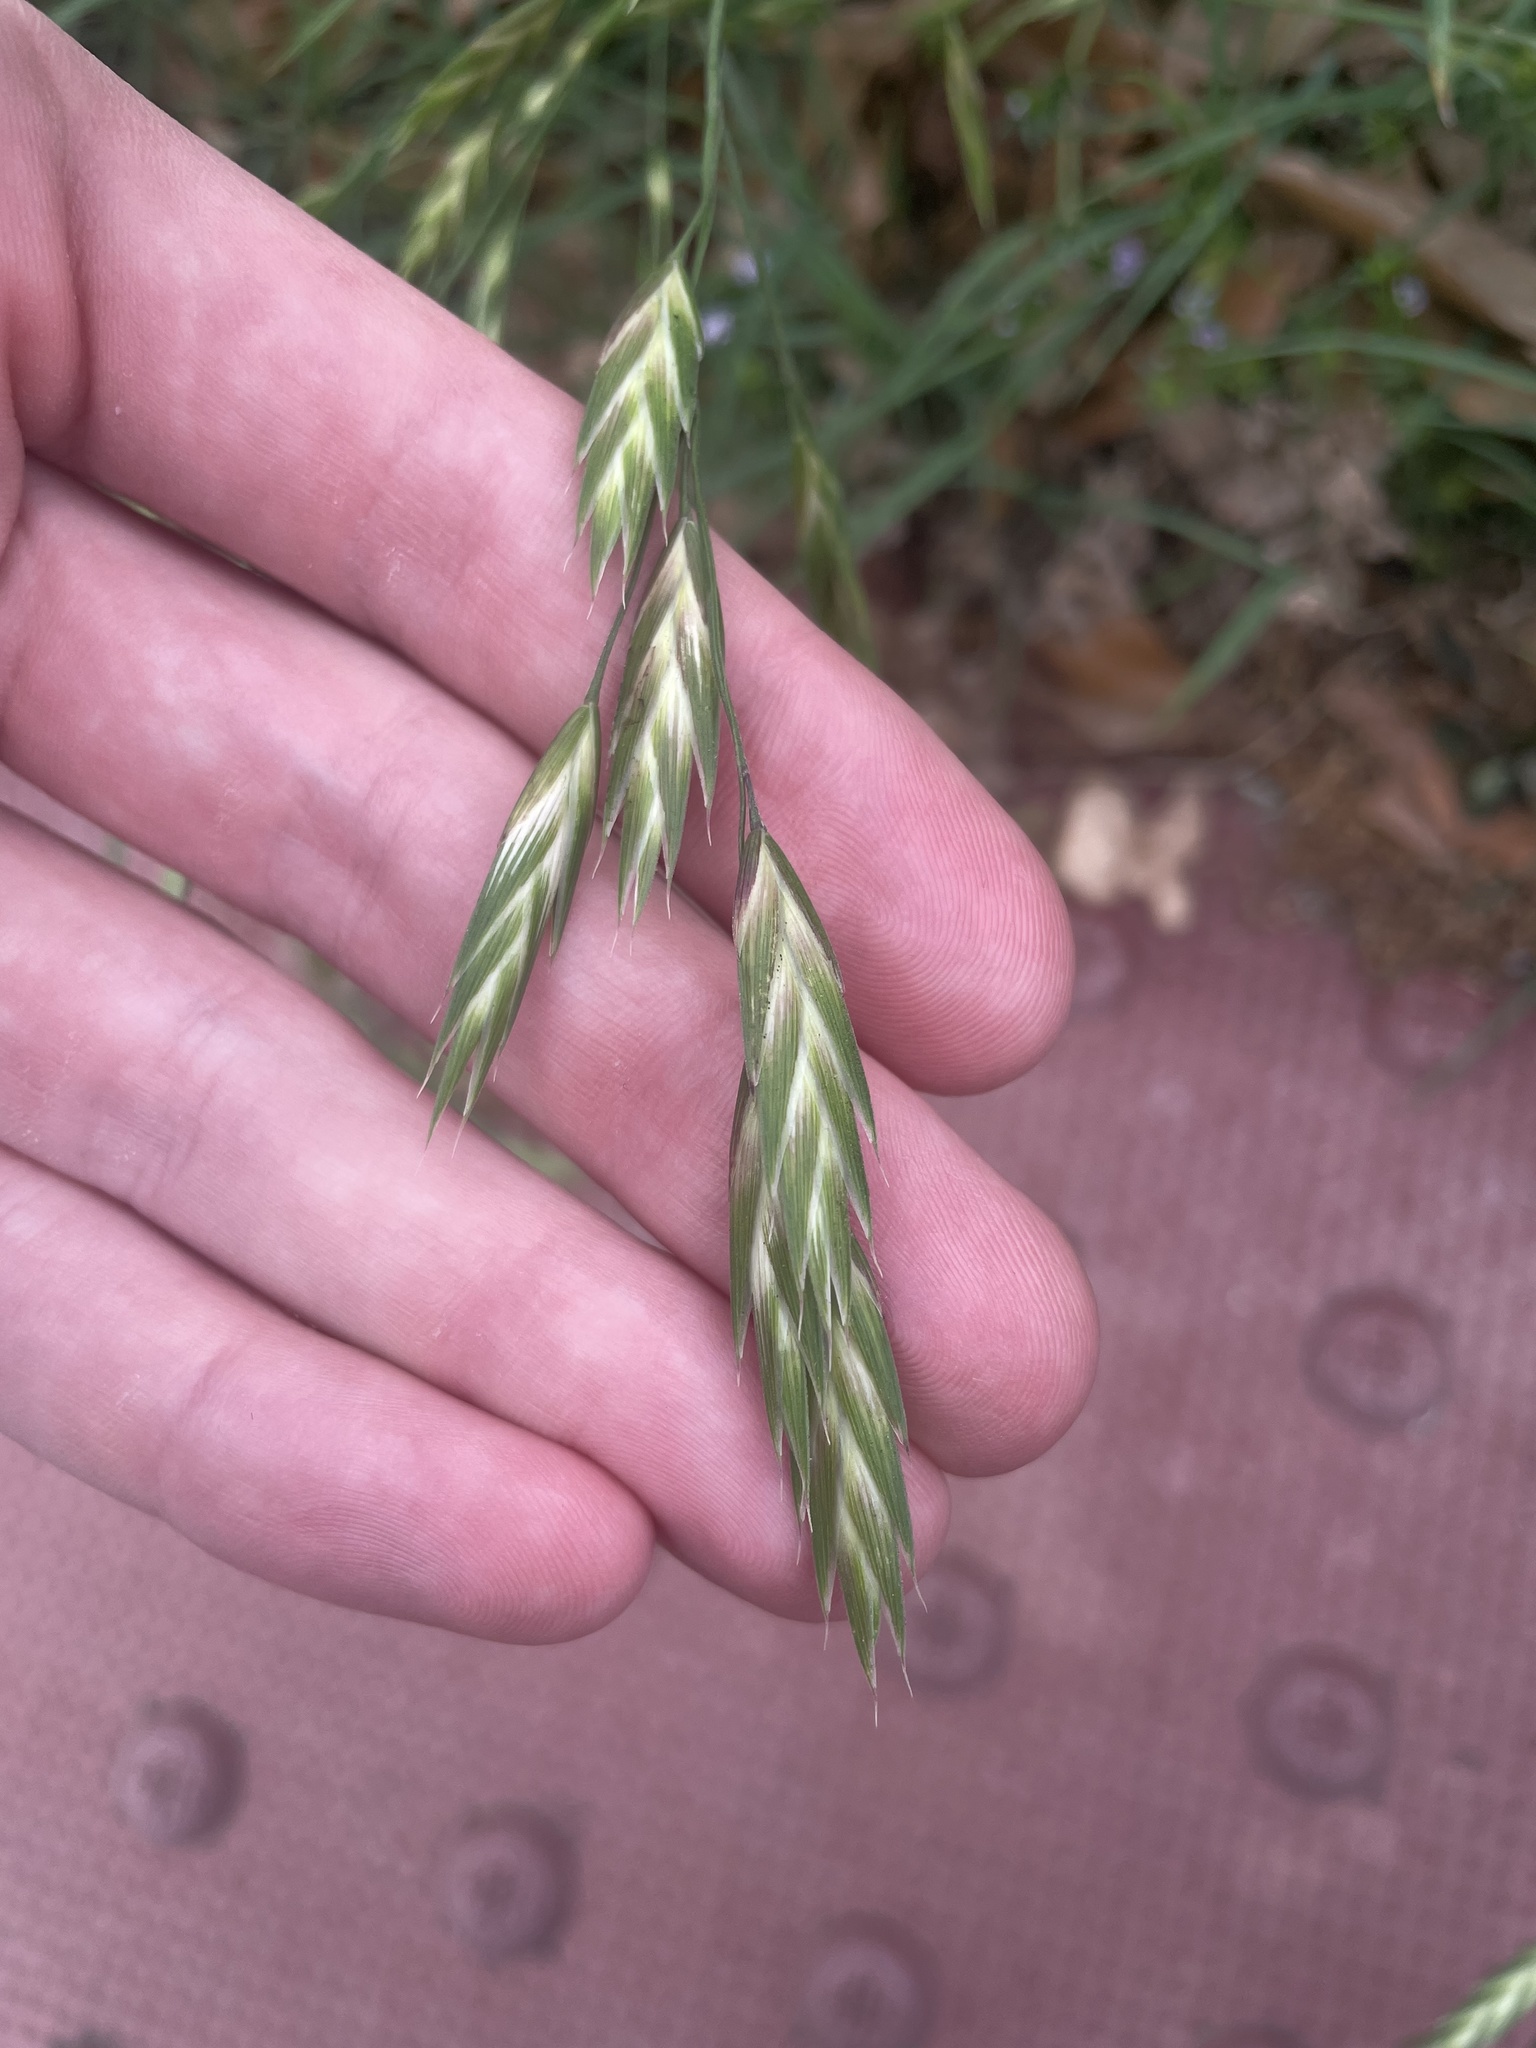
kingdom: Plantae
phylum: Tracheophyta
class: Liliopsida
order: Poales
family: Poaceae
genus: Bromus
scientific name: Bromus catharticus
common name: Rescuegrass
